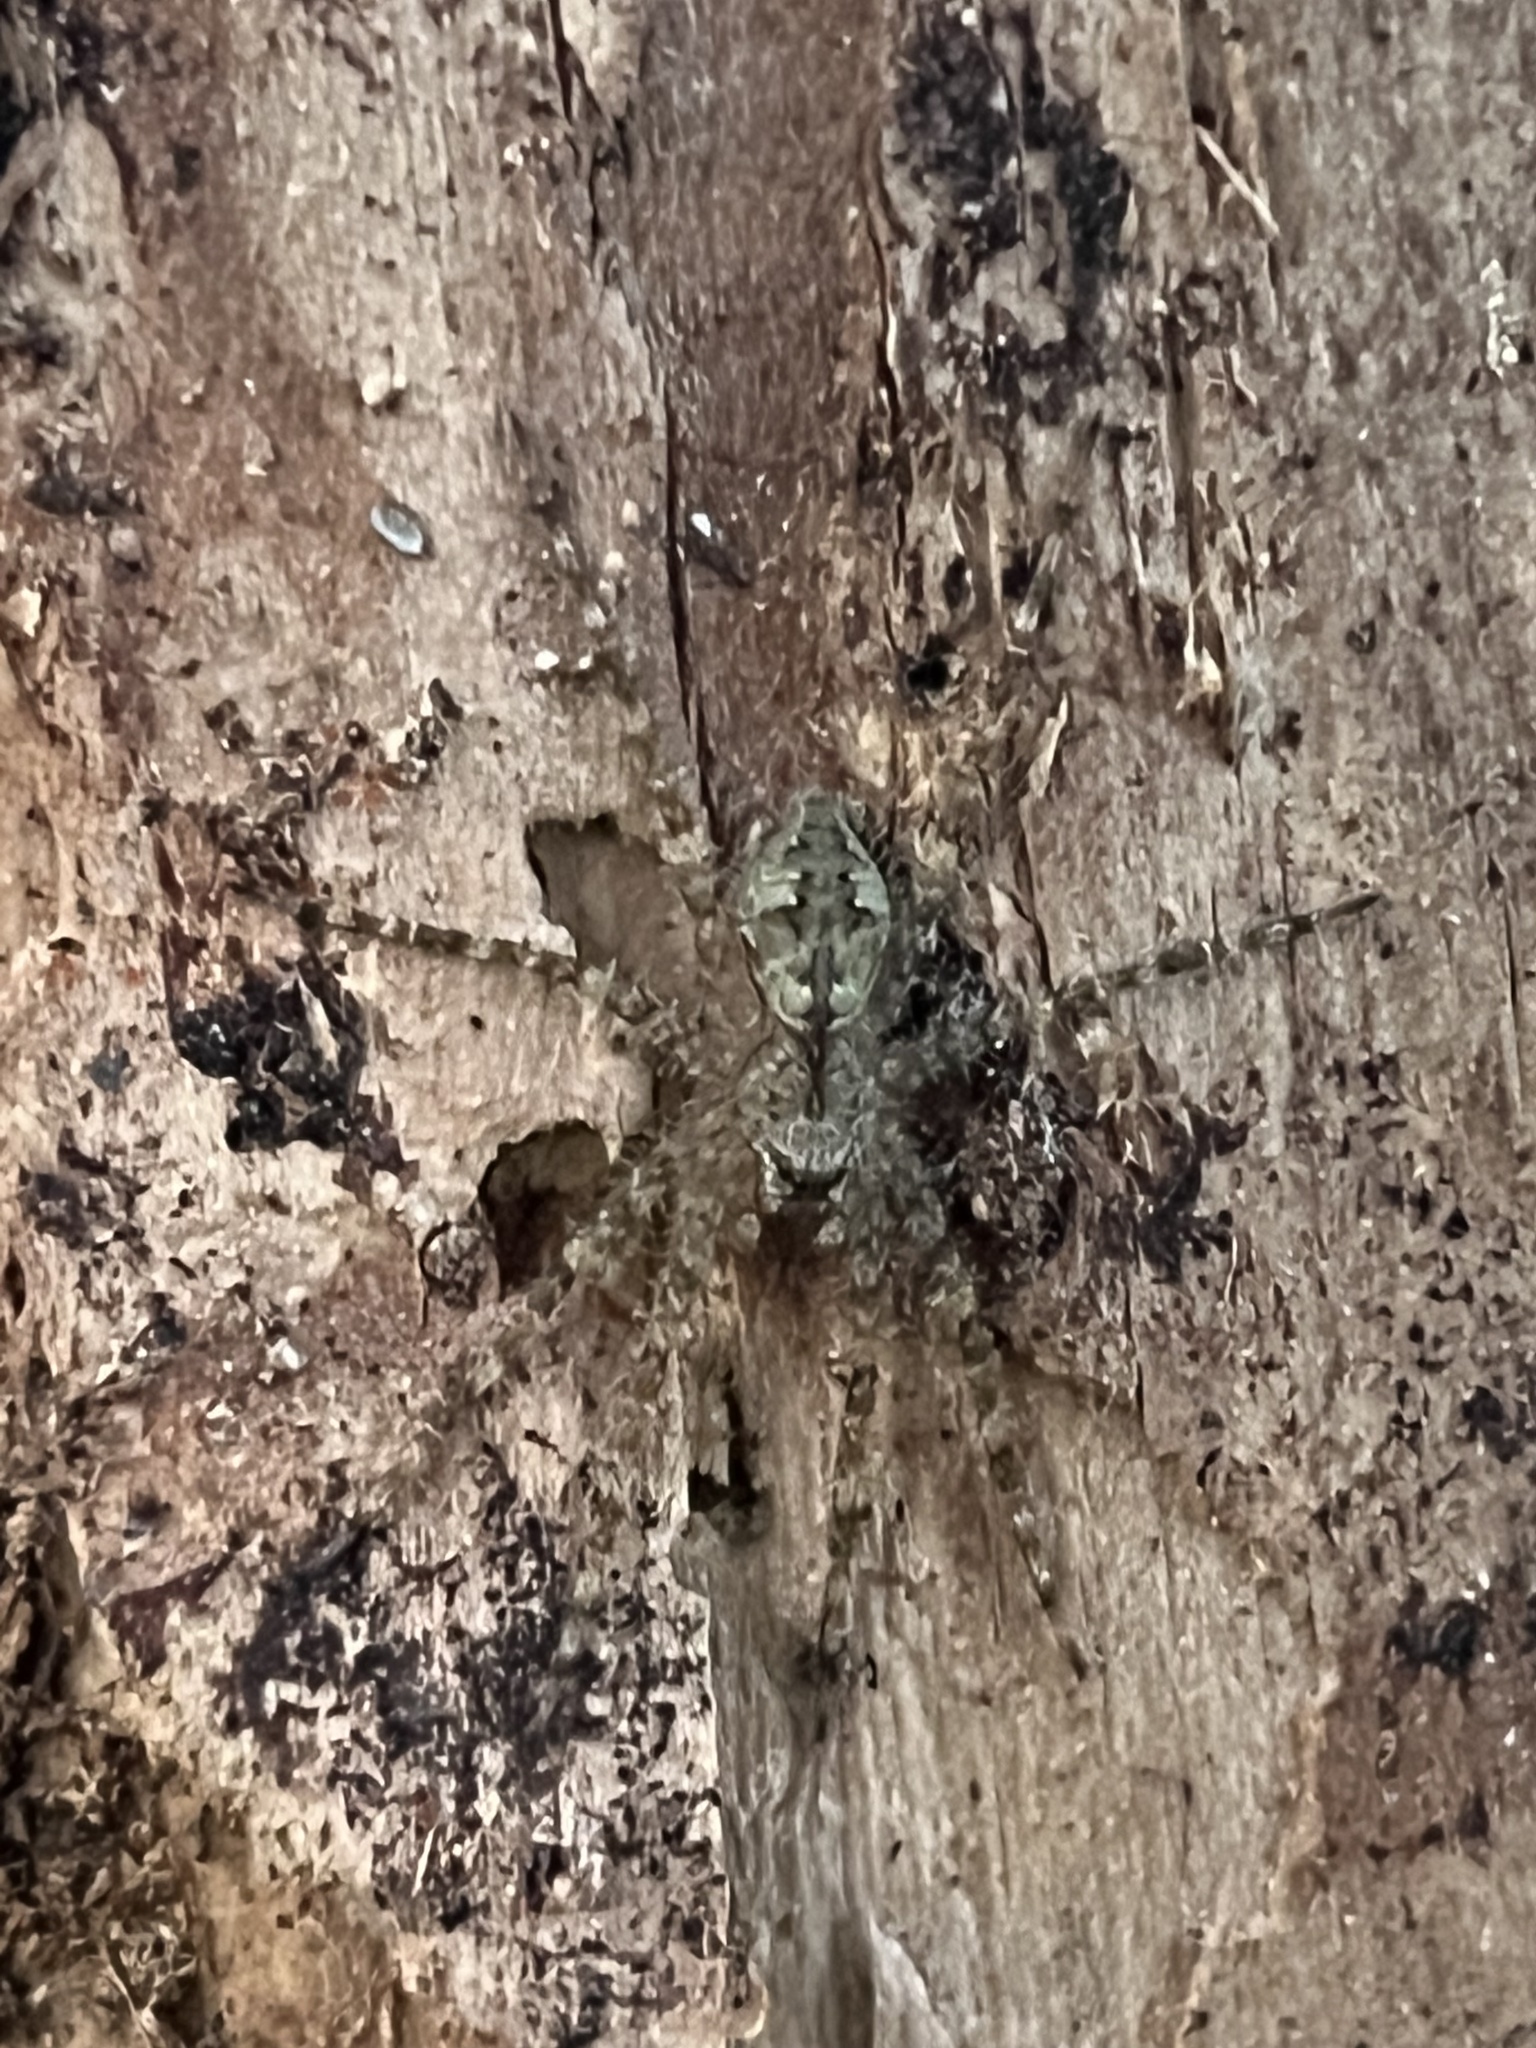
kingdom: Animalia
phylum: Arthropoda
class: Arachnida
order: Araneae
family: Pisauridae
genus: Dolomedes
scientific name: Dolomedes albineus
